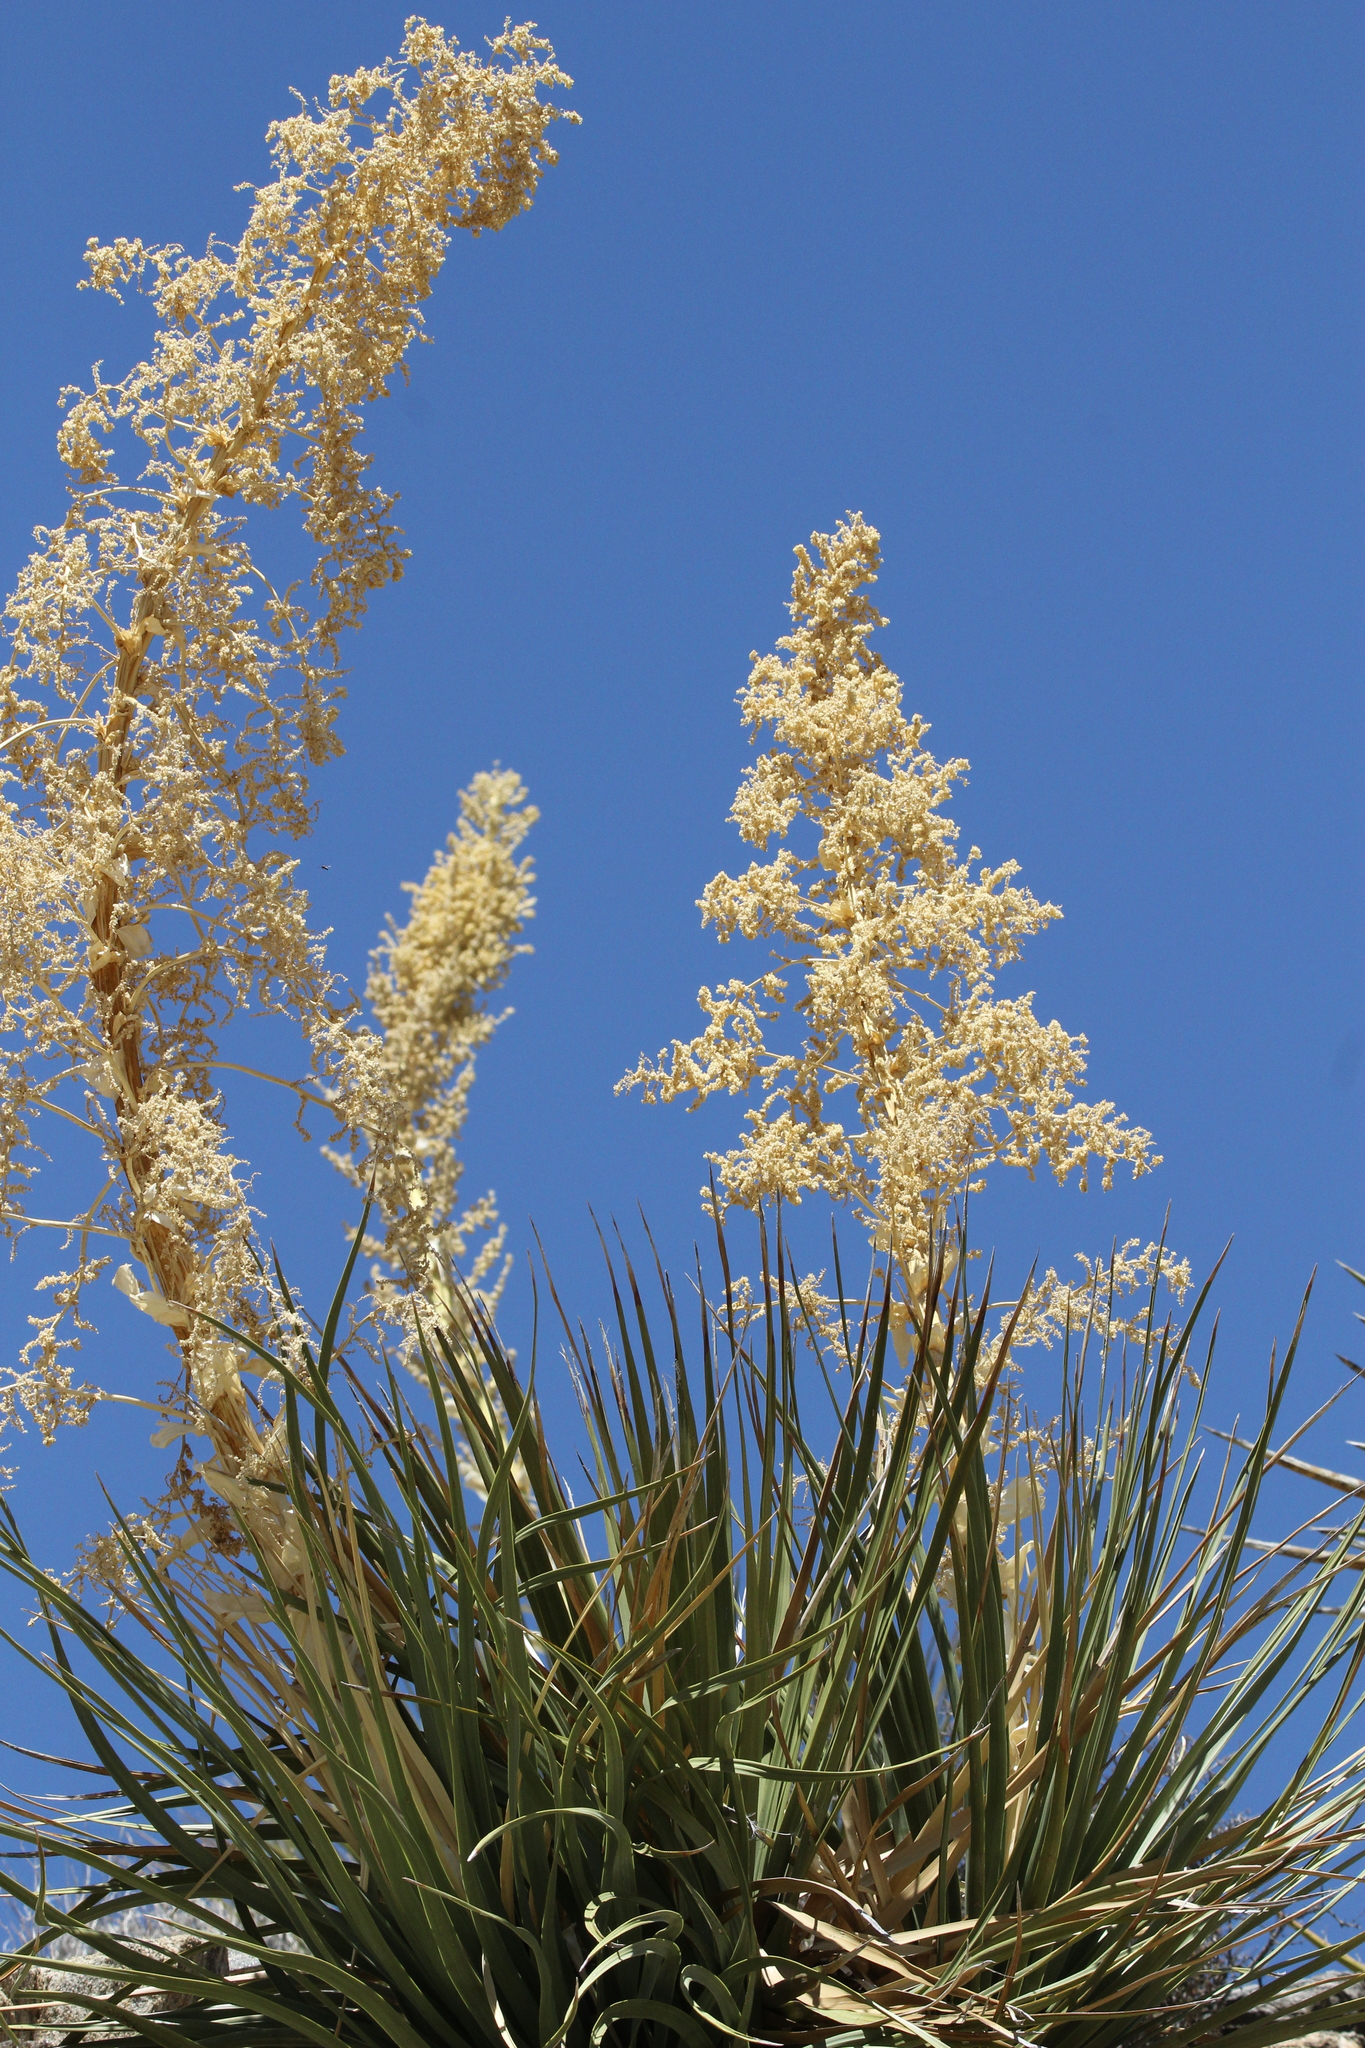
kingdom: Plantae
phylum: Tracheophyta
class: Liliopsida
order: Asparagales
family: Asparagaceae
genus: Nolina
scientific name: Nolina parryi
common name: Parry nolina
